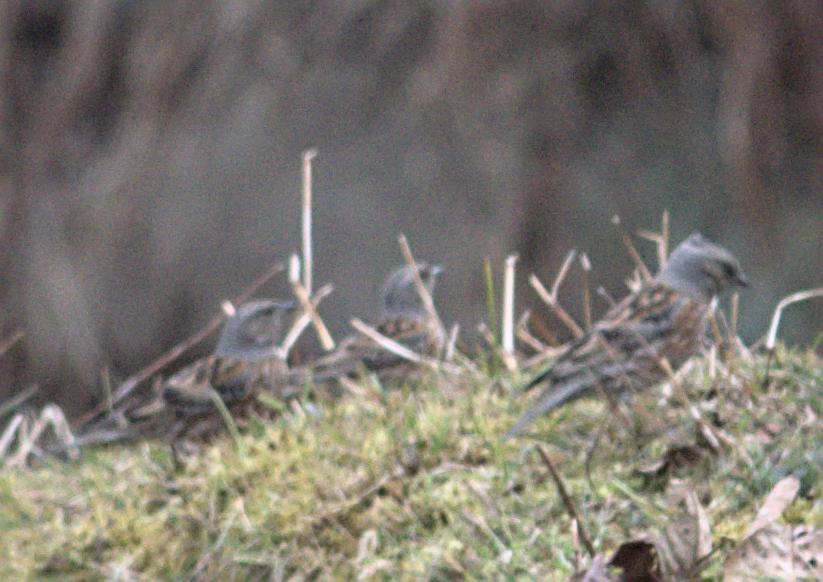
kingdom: Animalia
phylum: Chordata
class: Aves
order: Passeriformes
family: Prunellidae
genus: Prunella
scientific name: Prunella himalayana
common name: Altai accentor
